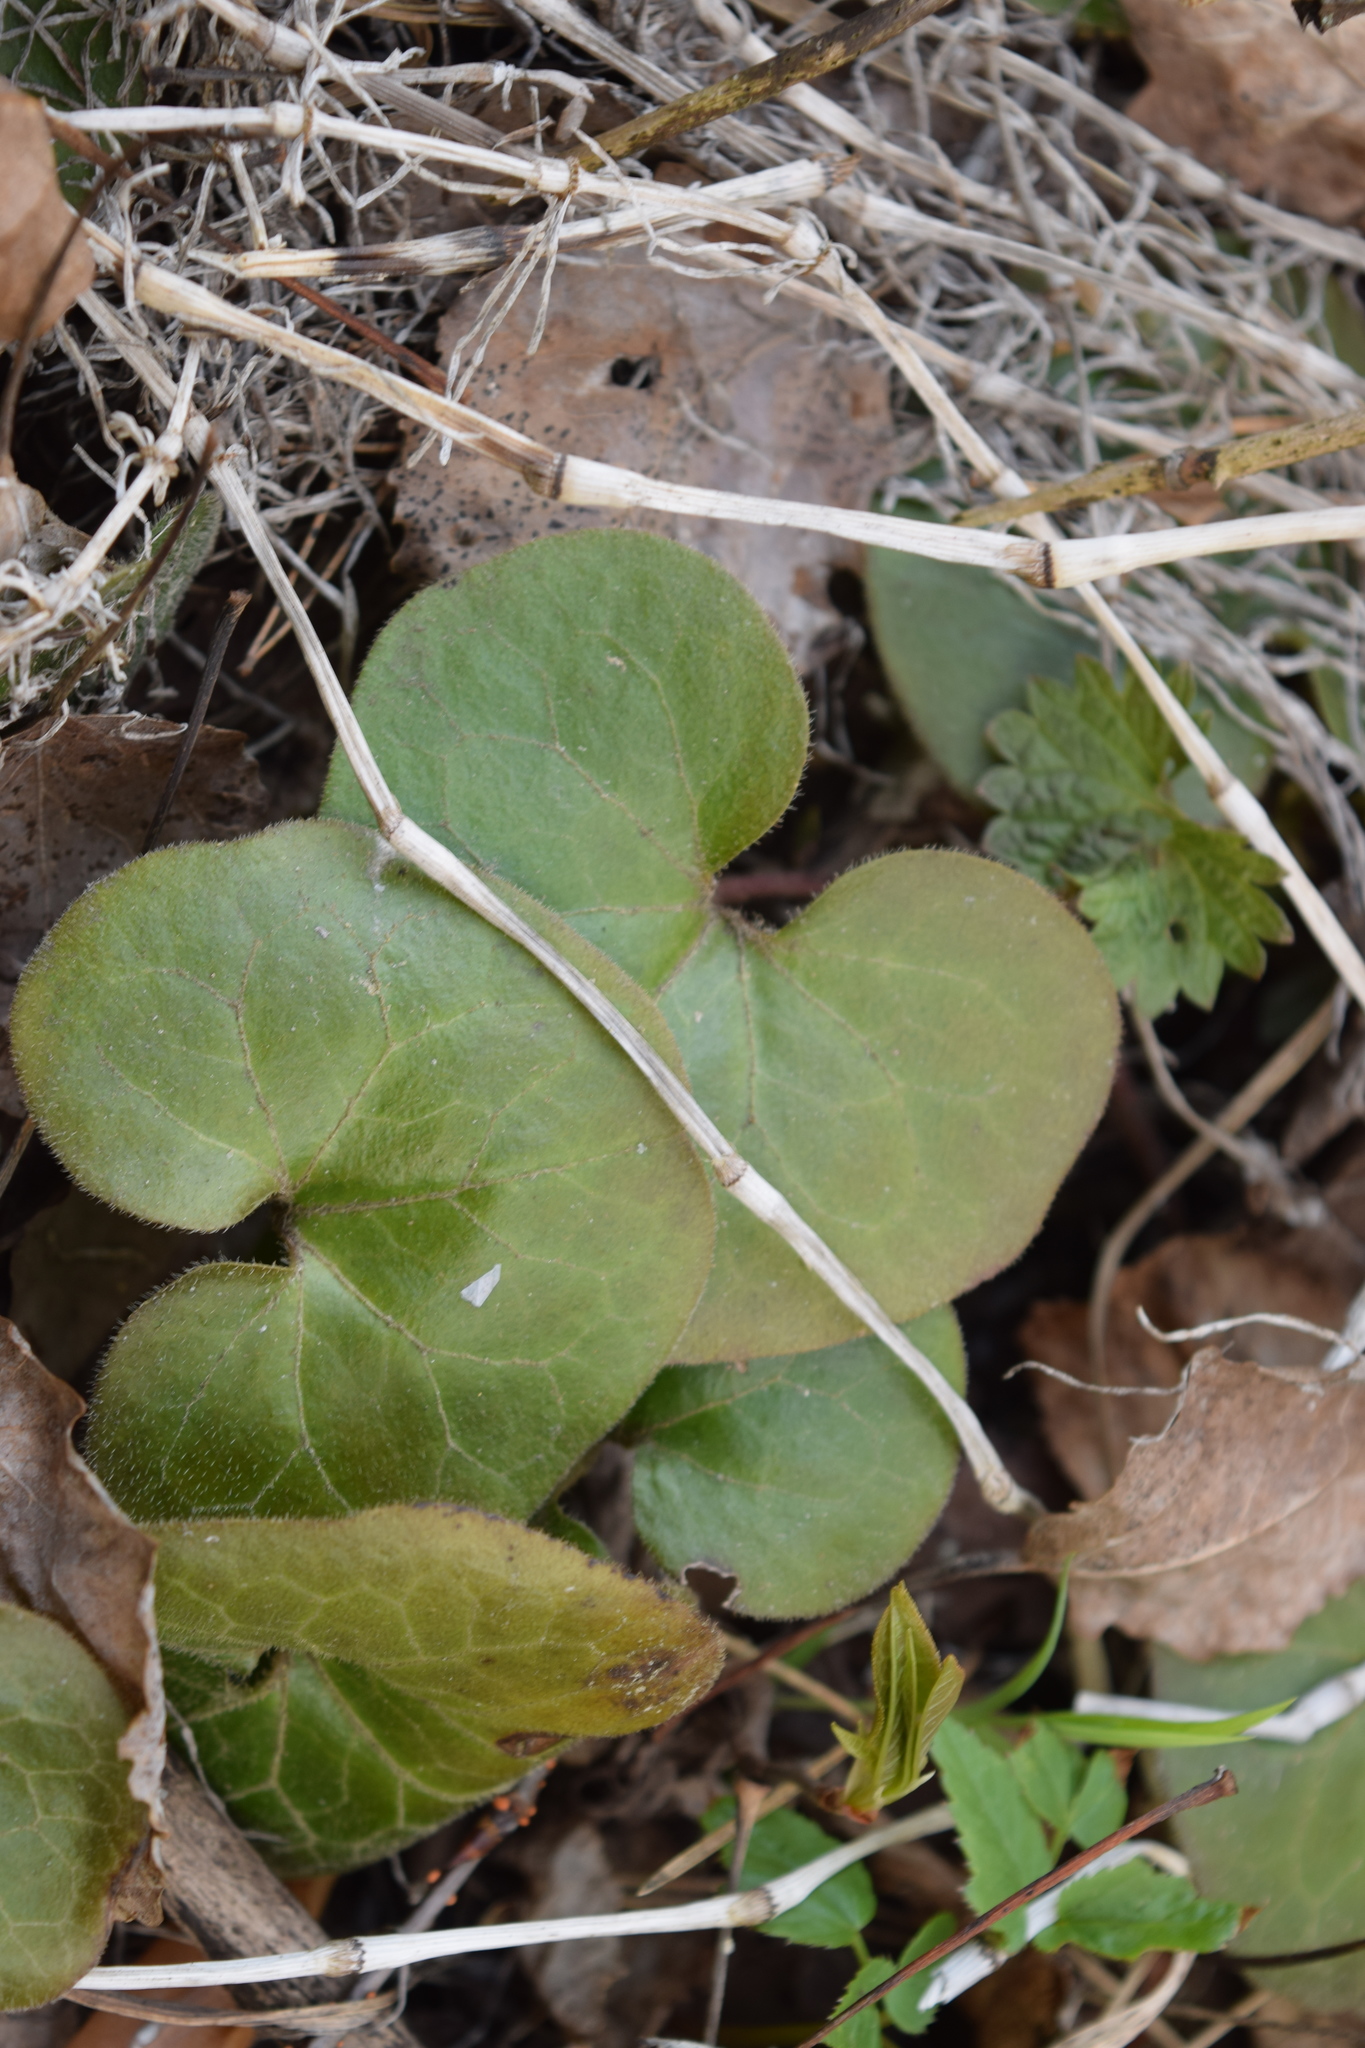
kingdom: Plantae
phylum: Tracheophyta
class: Magnoliopsida
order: Piperales
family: Aristolochiaceae
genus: Asarum
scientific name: Asarum europaeum
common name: Asarabacca
